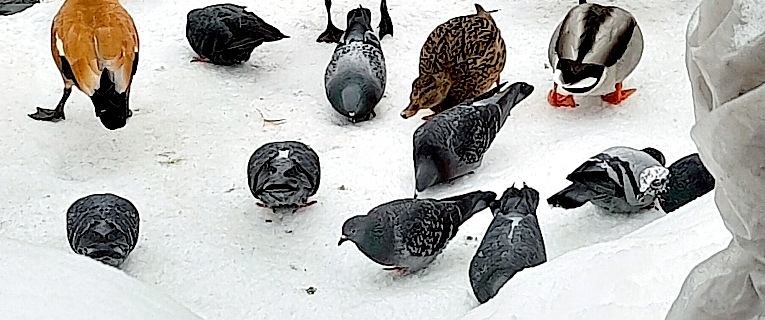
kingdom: Animalia
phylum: Chordata
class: Aves
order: Columbiformes
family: Columbidae
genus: Columba
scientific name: Columba livia
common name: Rock pigeon
